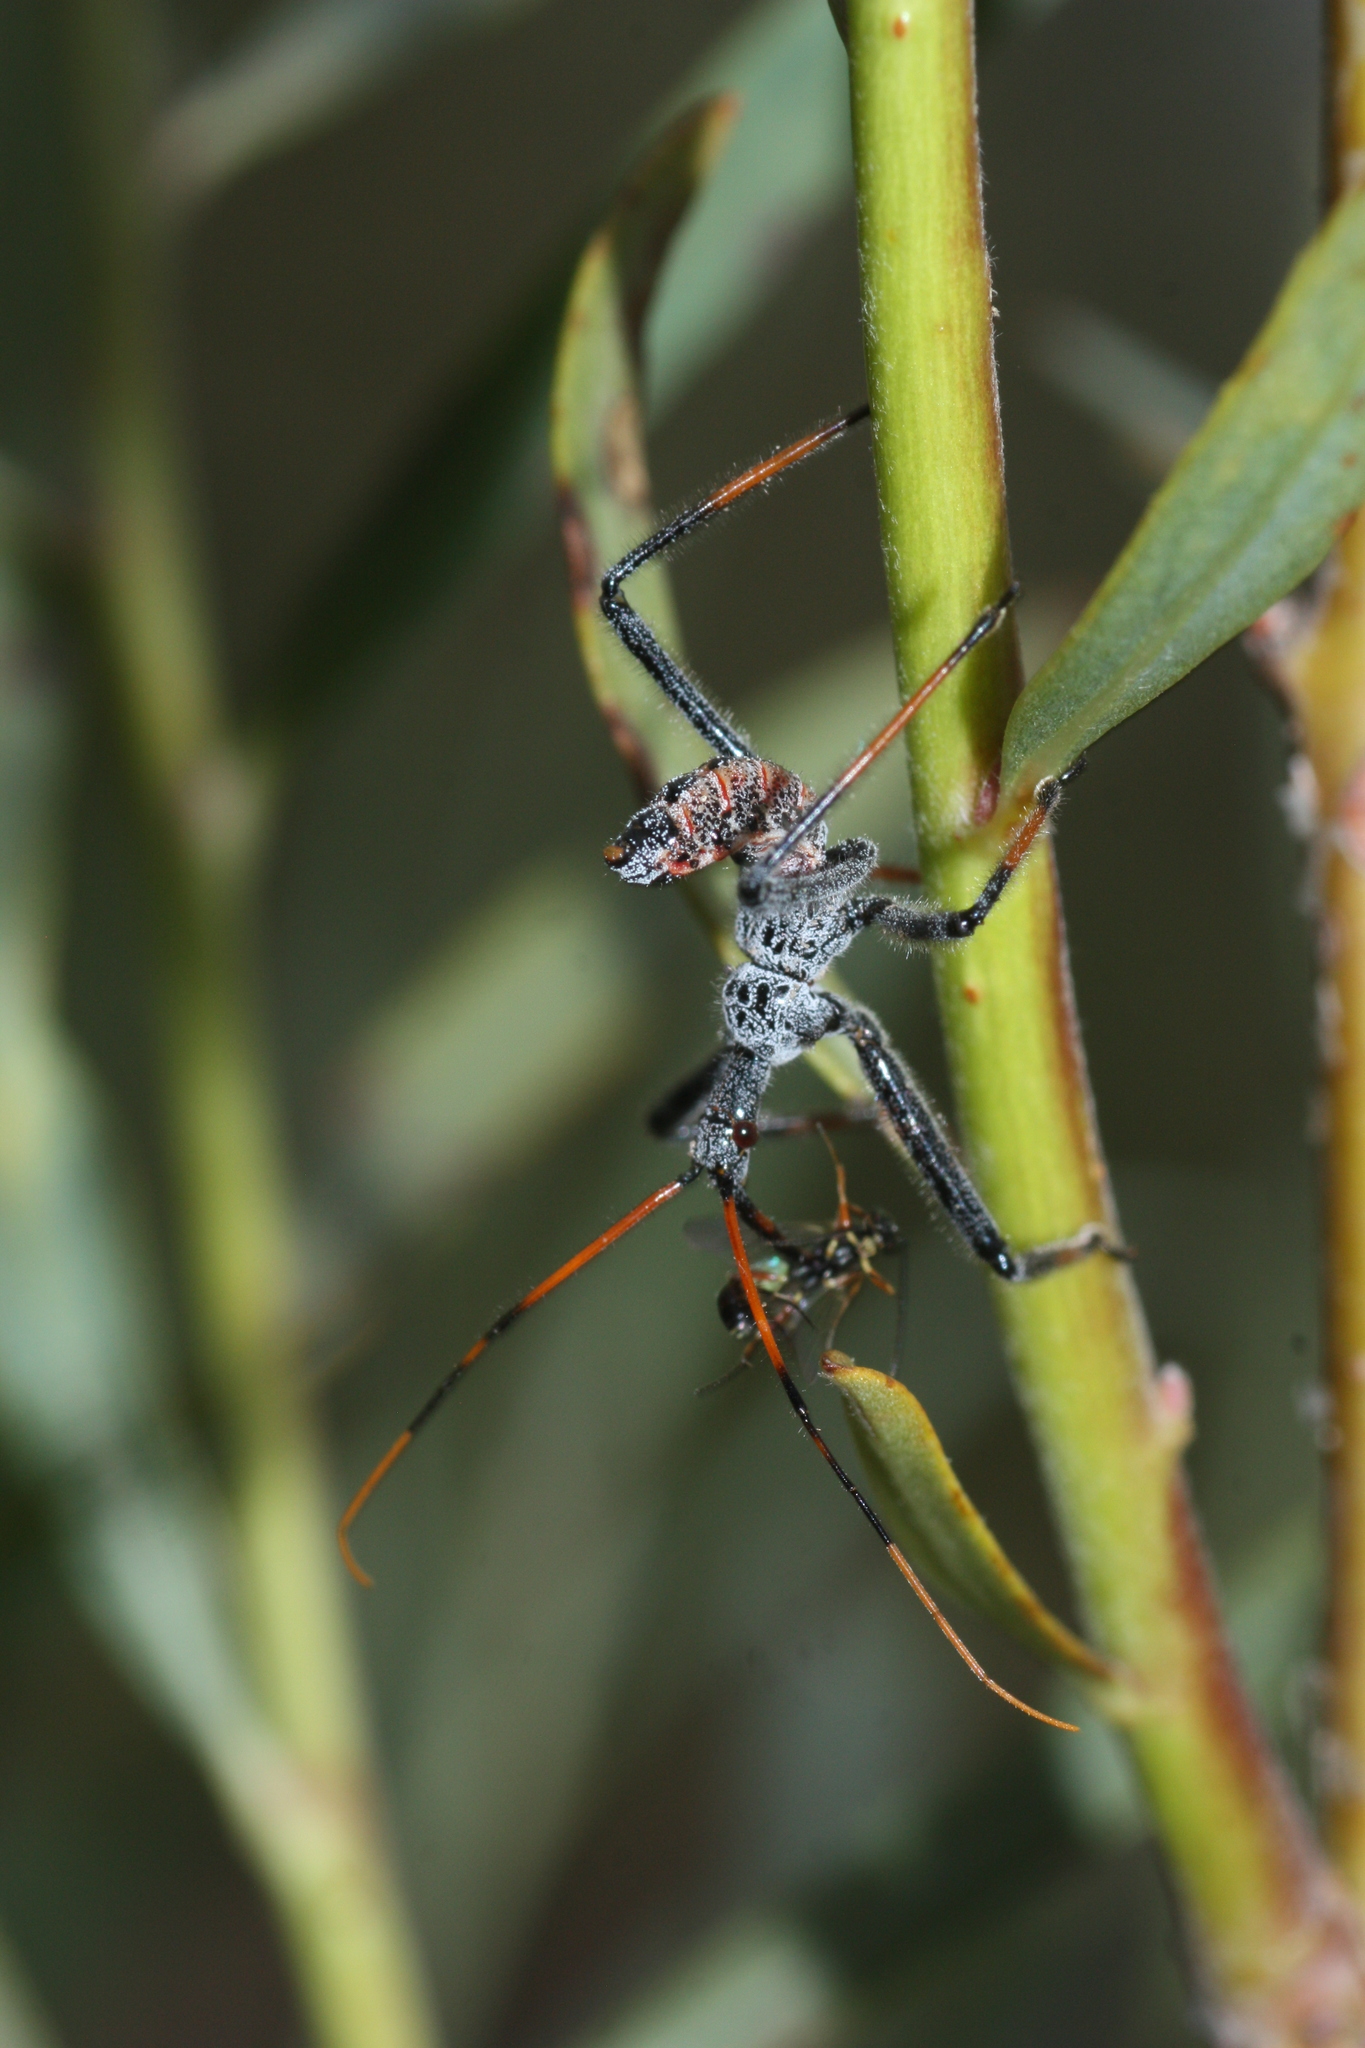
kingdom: Animalia
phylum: Arthropoda
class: Insecta
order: Hemiptera
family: Reduviidae
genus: Arilus
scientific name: Arilus cristatus
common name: North american wheel bug
